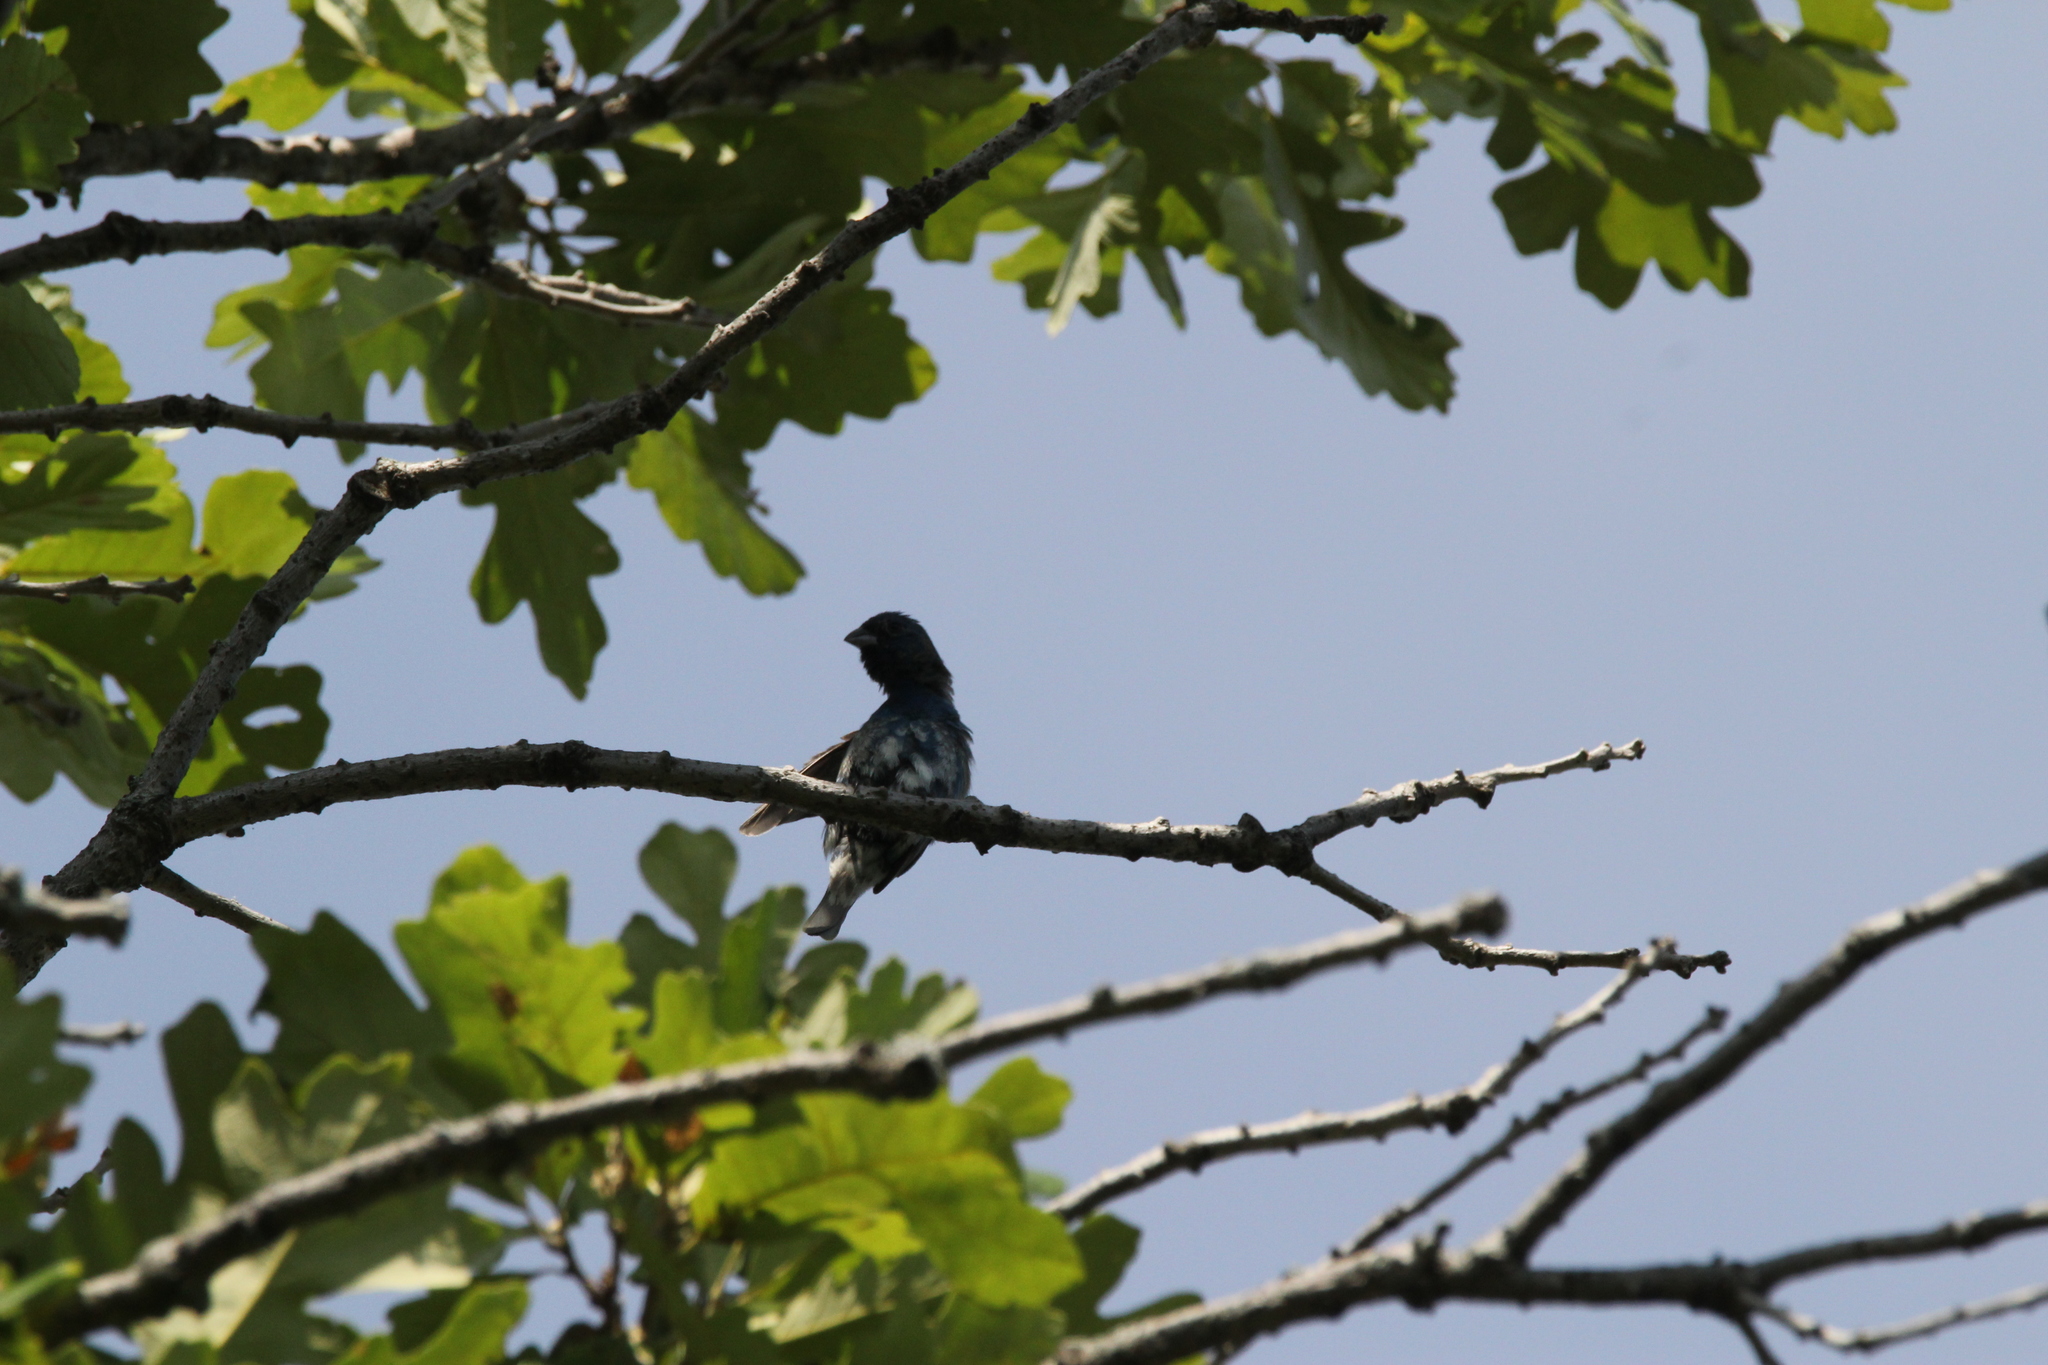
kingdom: Animalia
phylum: Chordata
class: Aves
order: Passeriformes
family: Cardinalidae
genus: Passerina
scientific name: Passerina cyanea
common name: Indigo bunting
